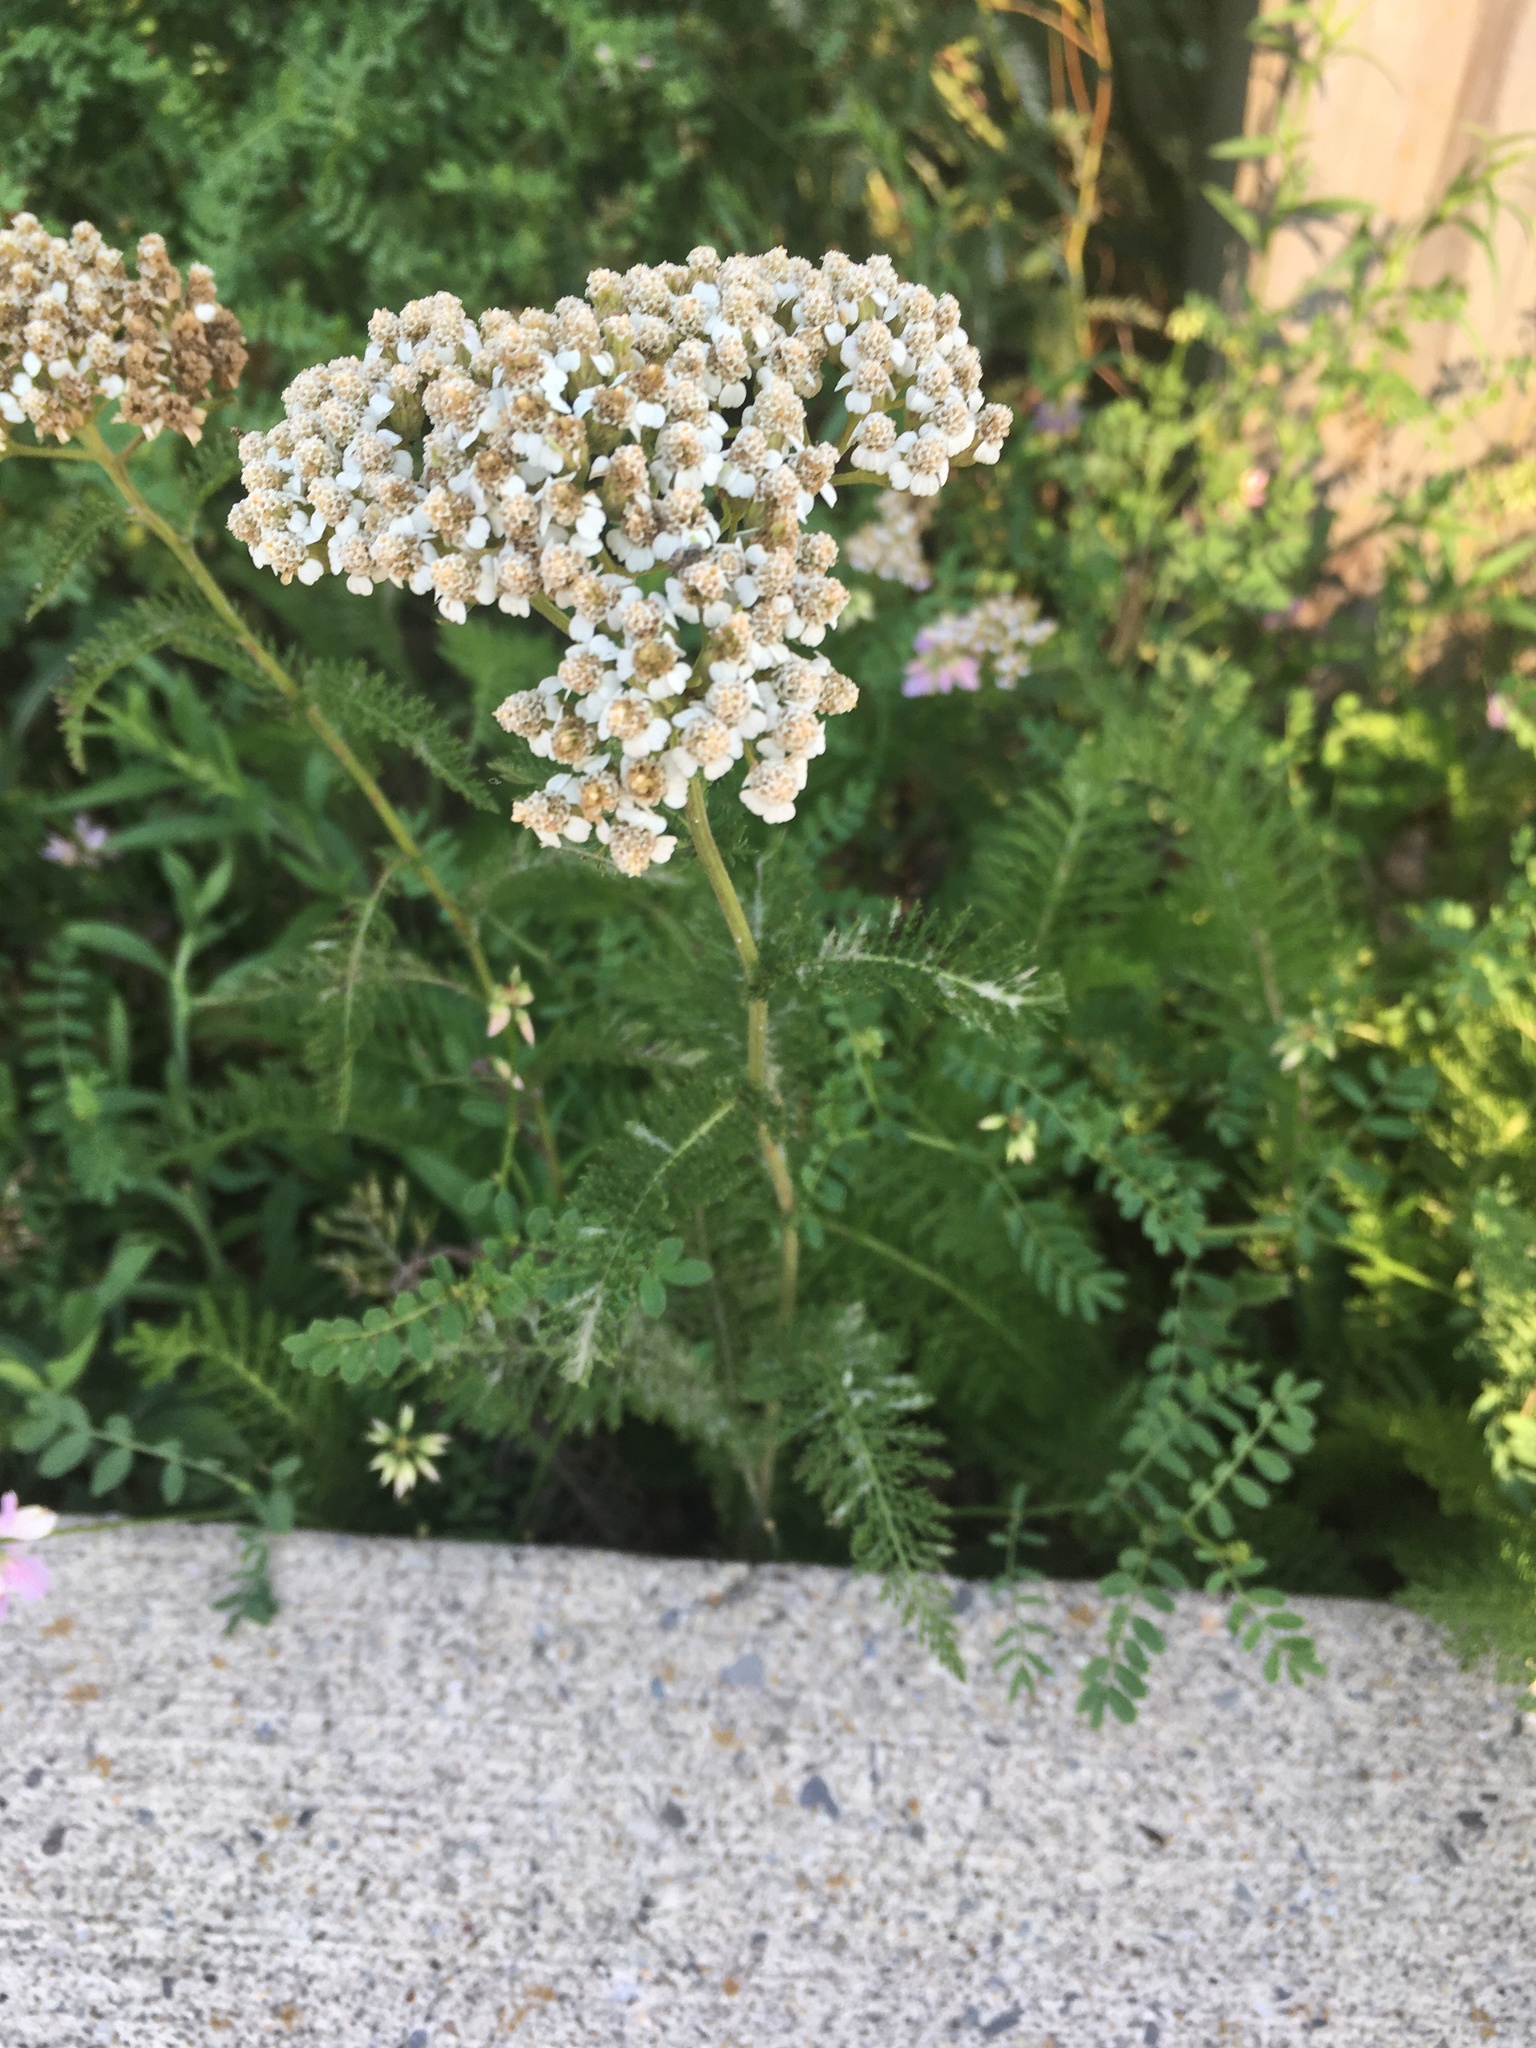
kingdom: Plantae
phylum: Tracheophyta
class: Magnoliopsida
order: Asterales
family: Asteraceae
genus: Achillea
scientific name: Achillea millefolium
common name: Yarrow
